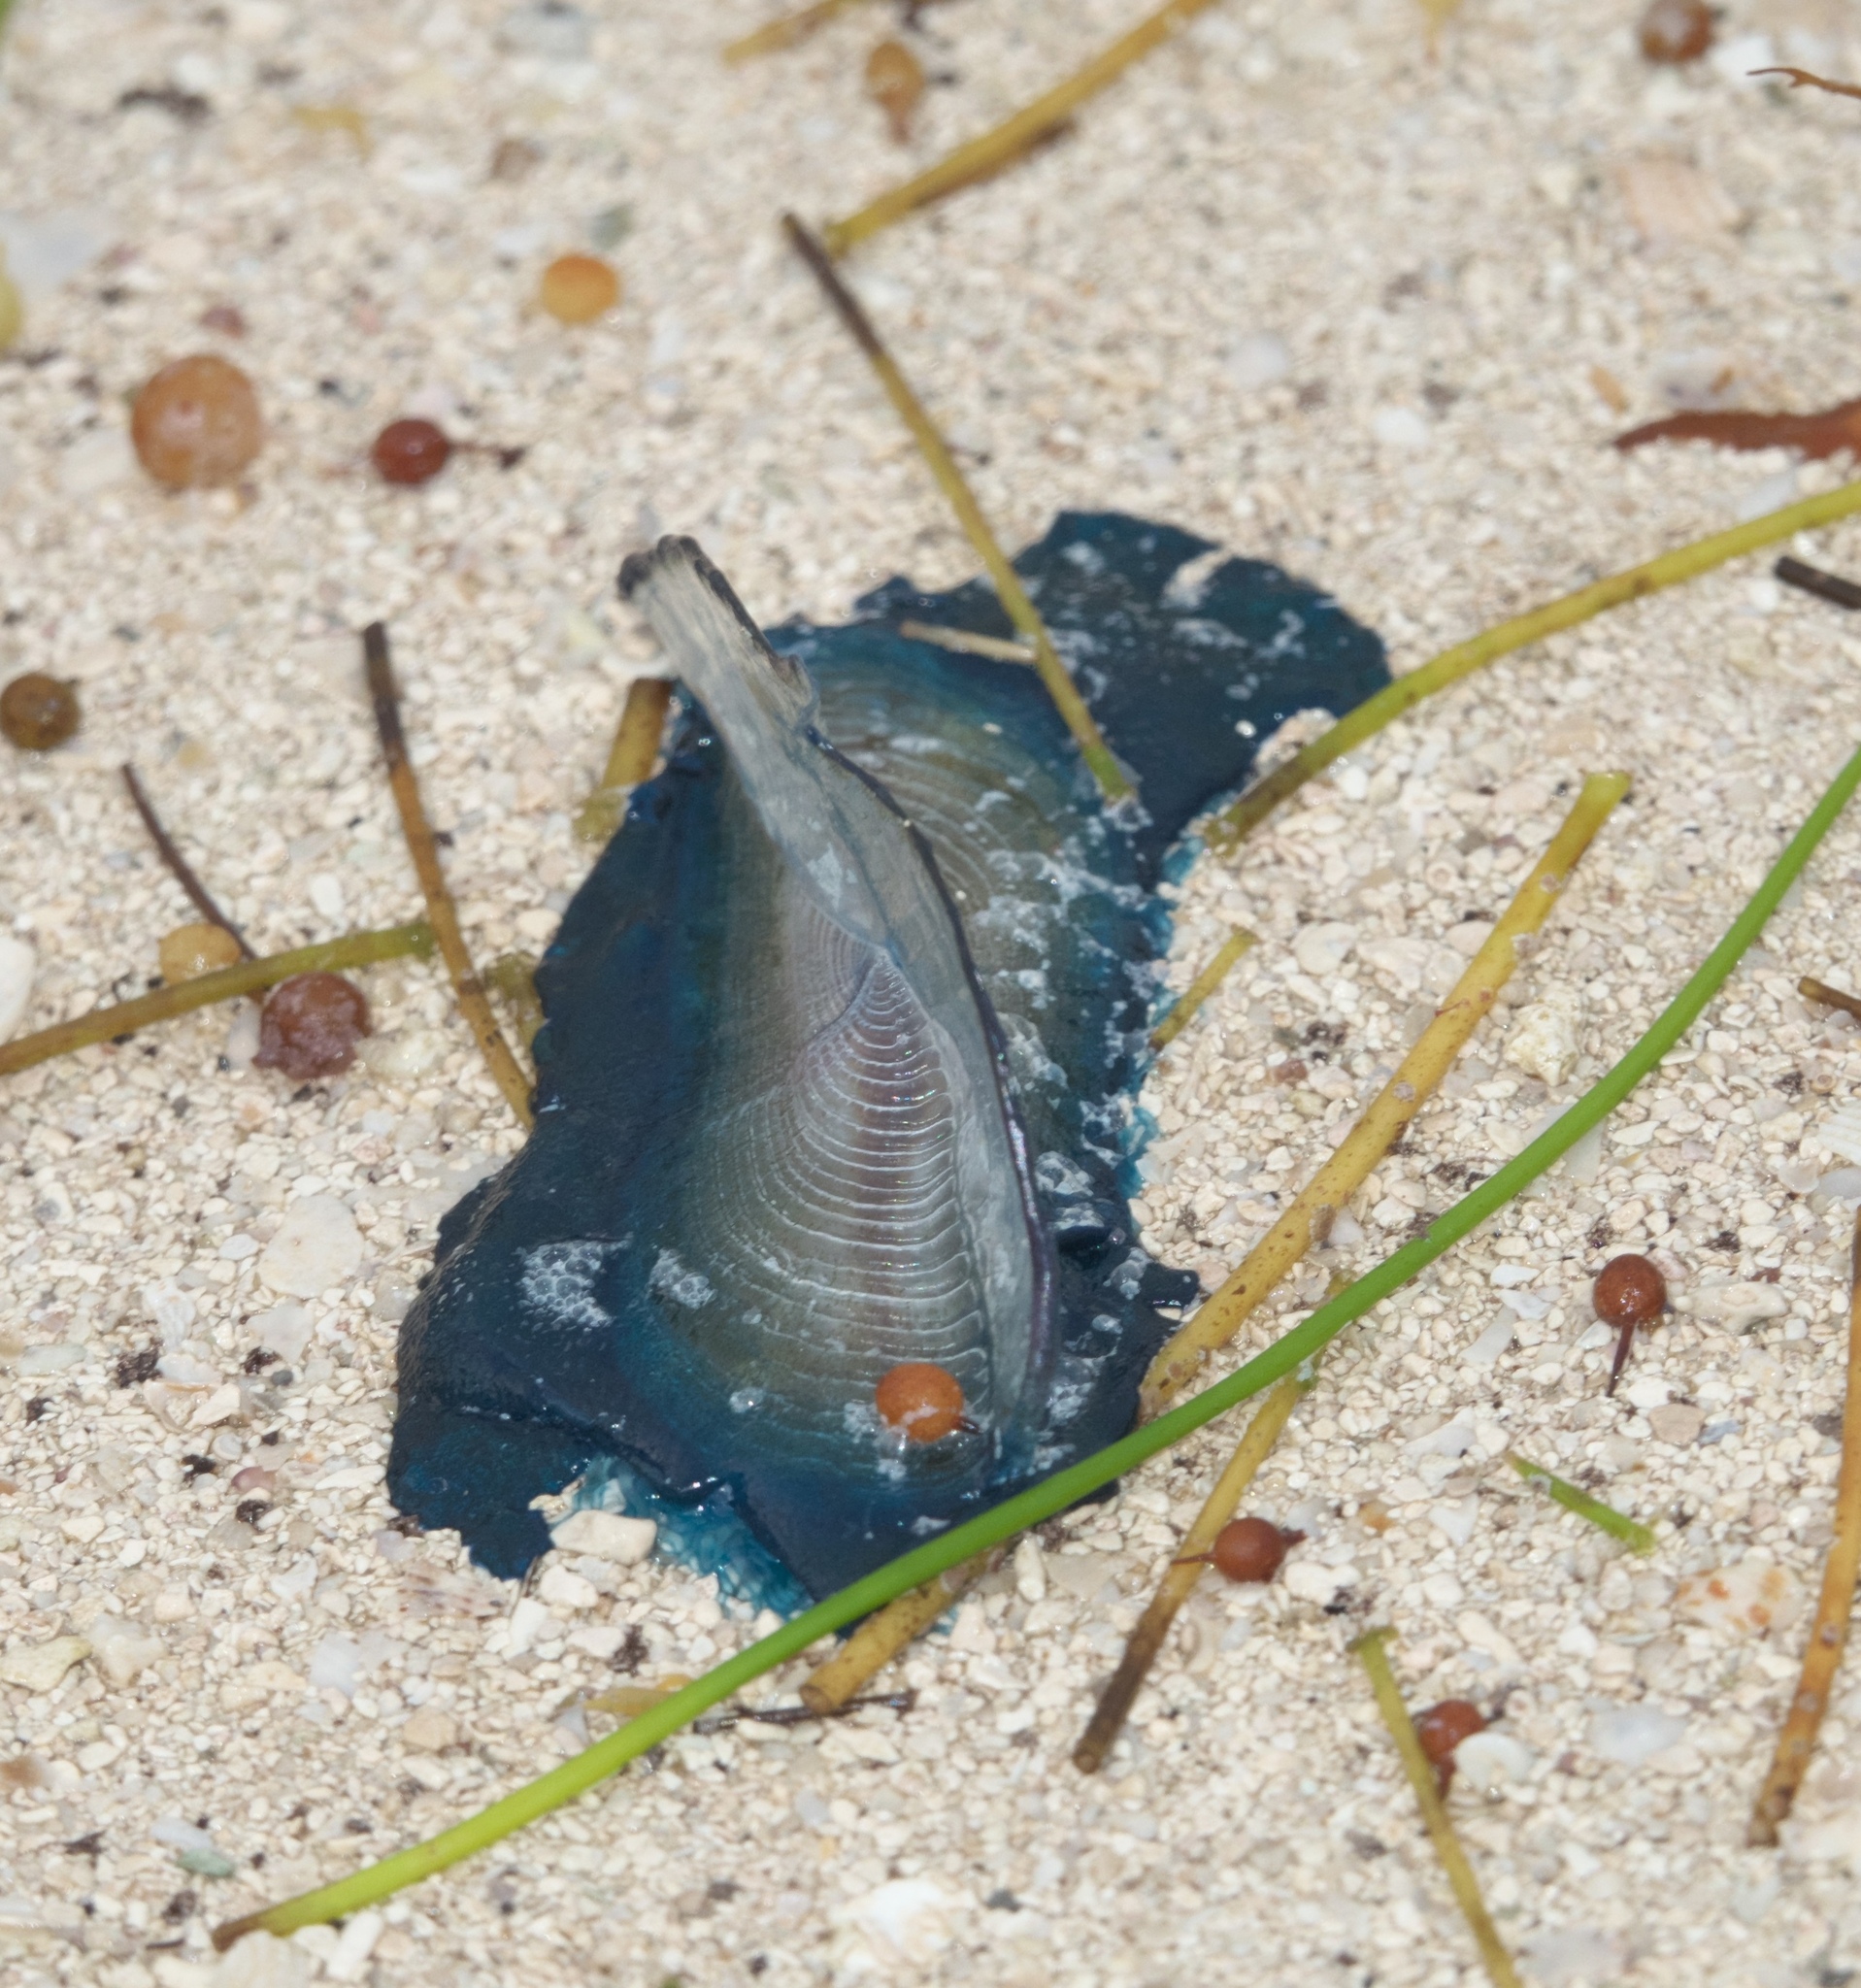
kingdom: Animalia
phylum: Cnidaria
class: Hydrozoa
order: Anthoathecata
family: Porpitidae
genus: Velella
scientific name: Velella velella
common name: By-the-wind-sailor
